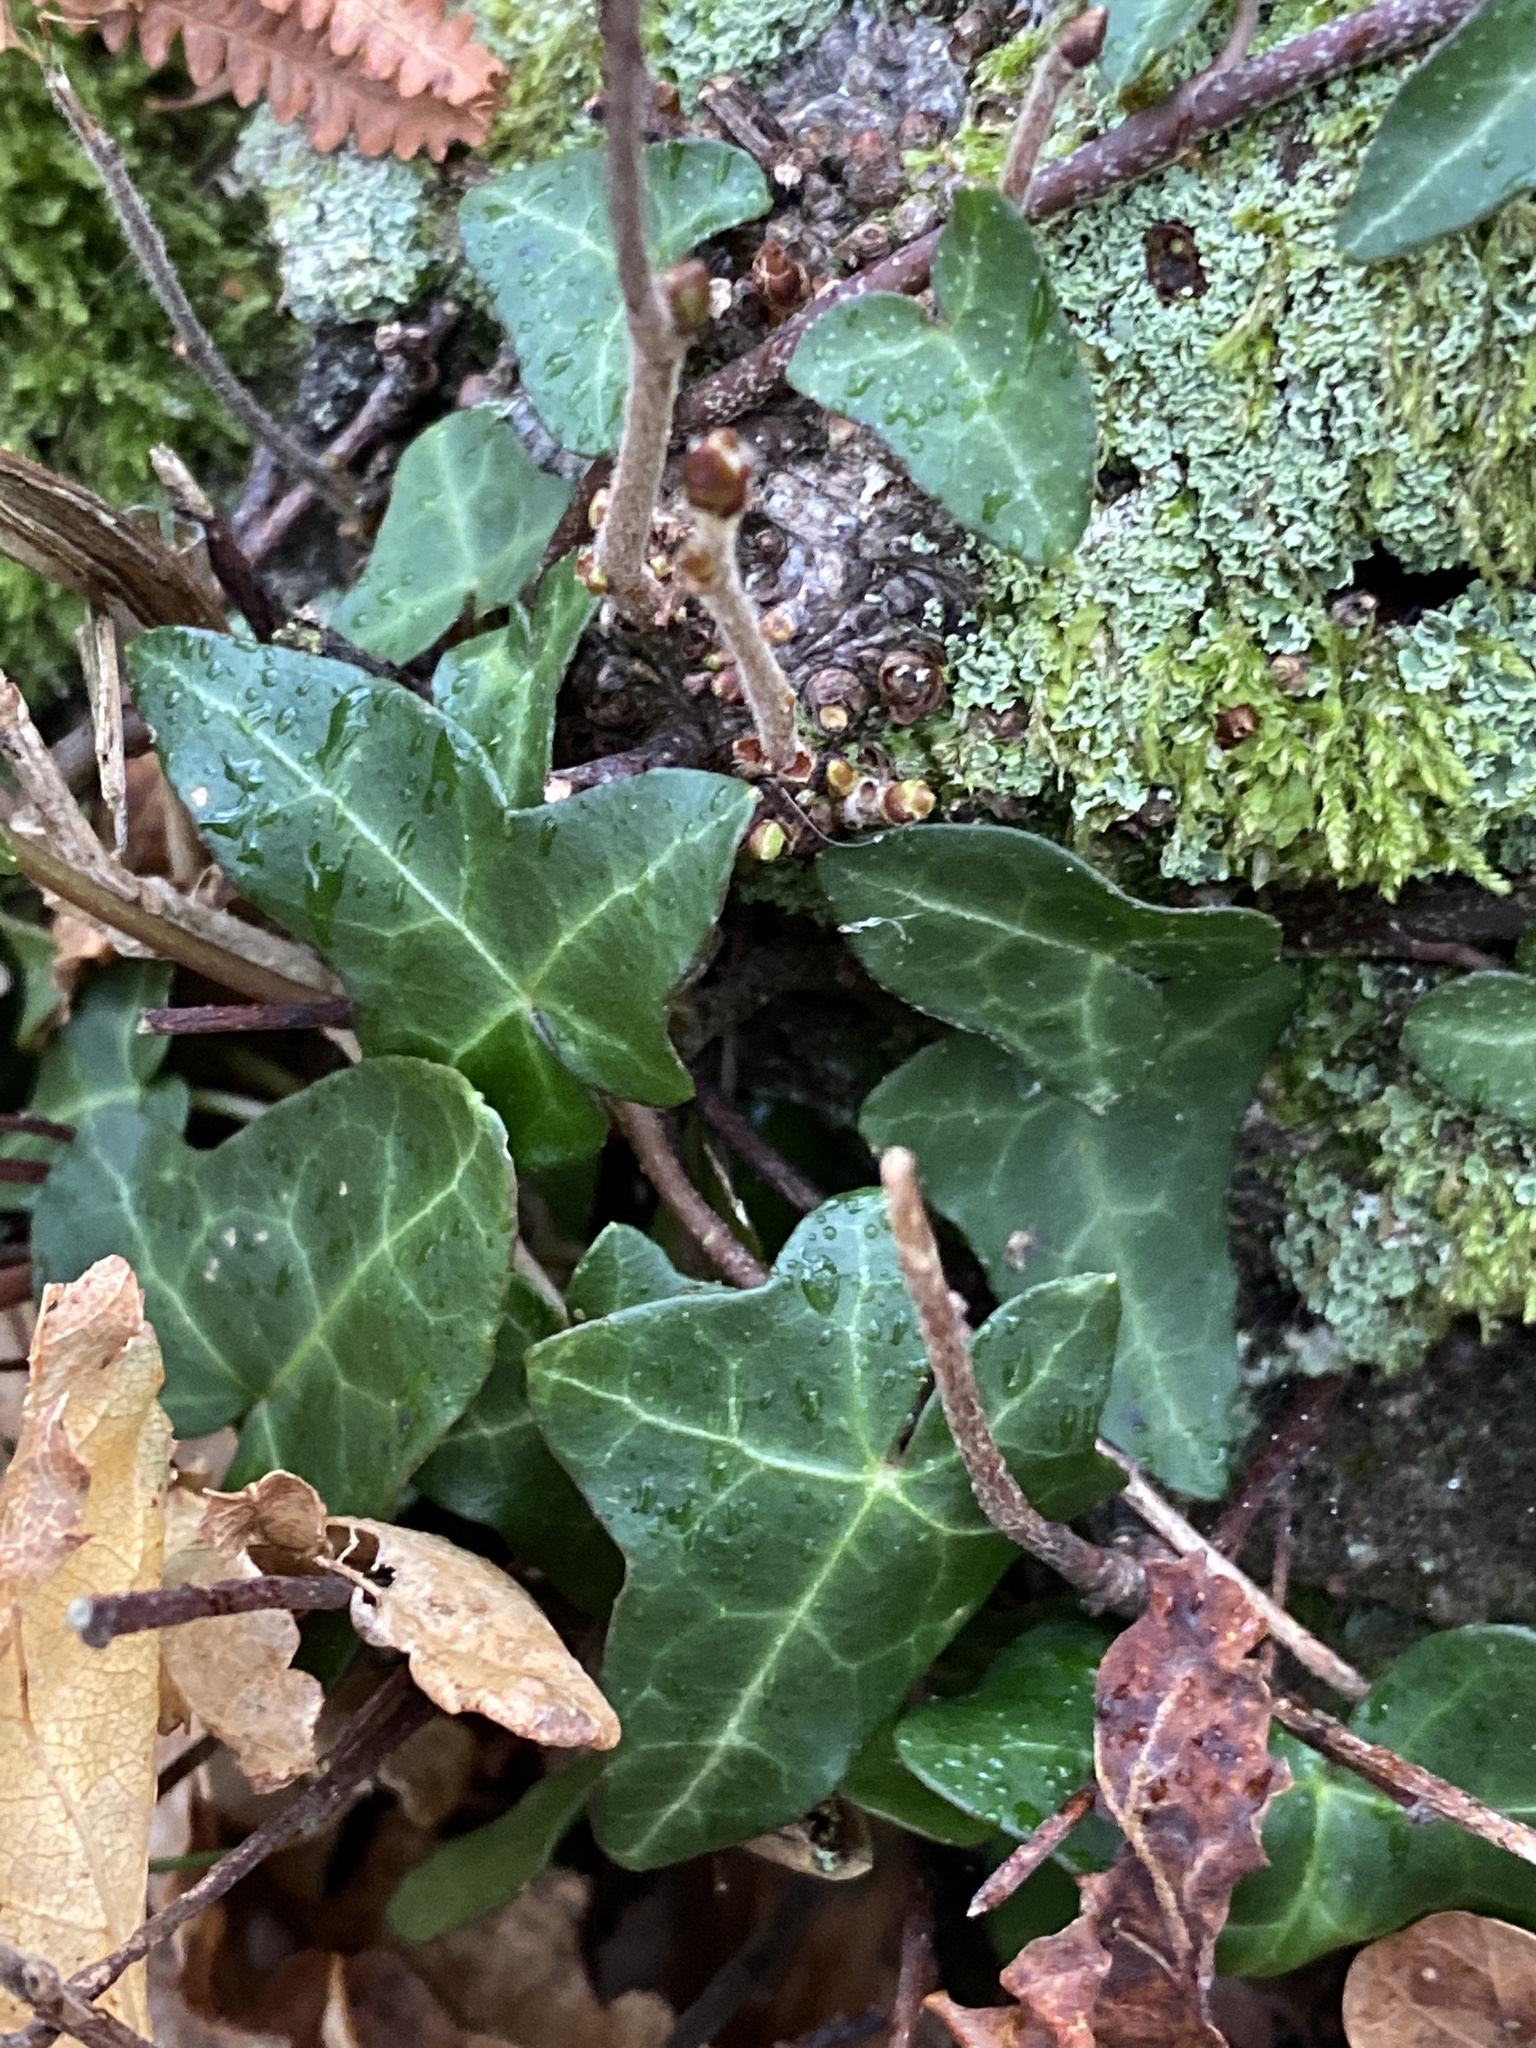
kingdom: Plantae
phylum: Tracheophyta
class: Magnoliopsida
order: Apiales
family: Araliaceae
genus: Hedera
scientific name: Hedera helix
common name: Ivy
